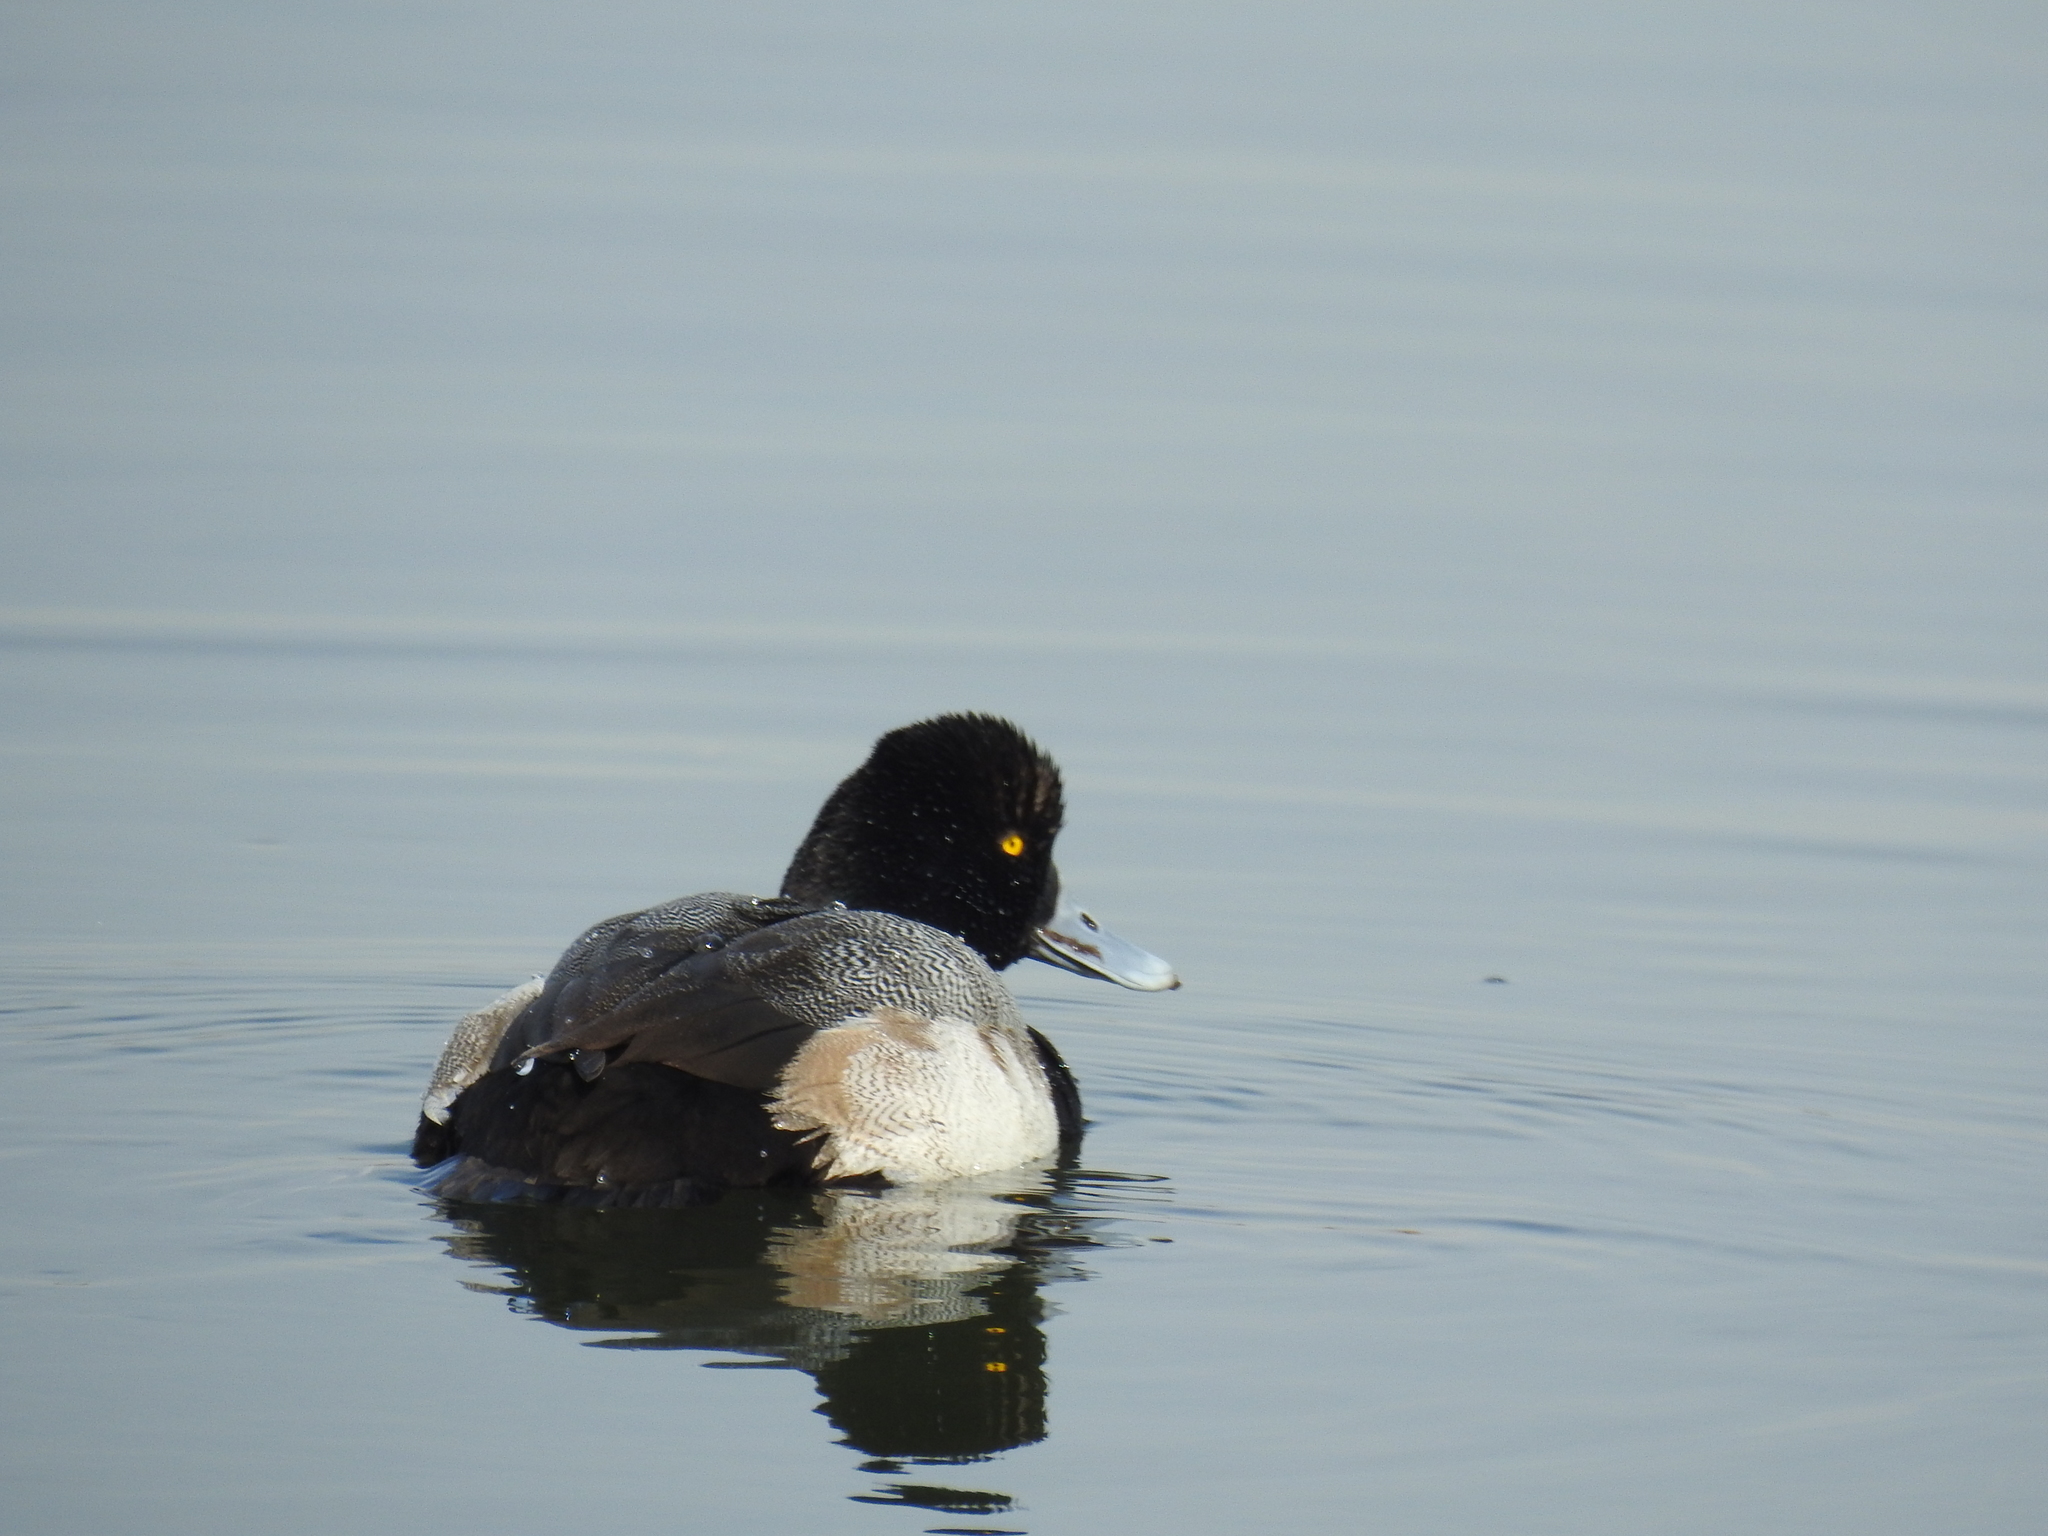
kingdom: Animalia
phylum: Chordata
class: Aves
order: Anseriformes
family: Anatidae
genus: Aythya
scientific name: Aythya affinis
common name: Lesser scaup
